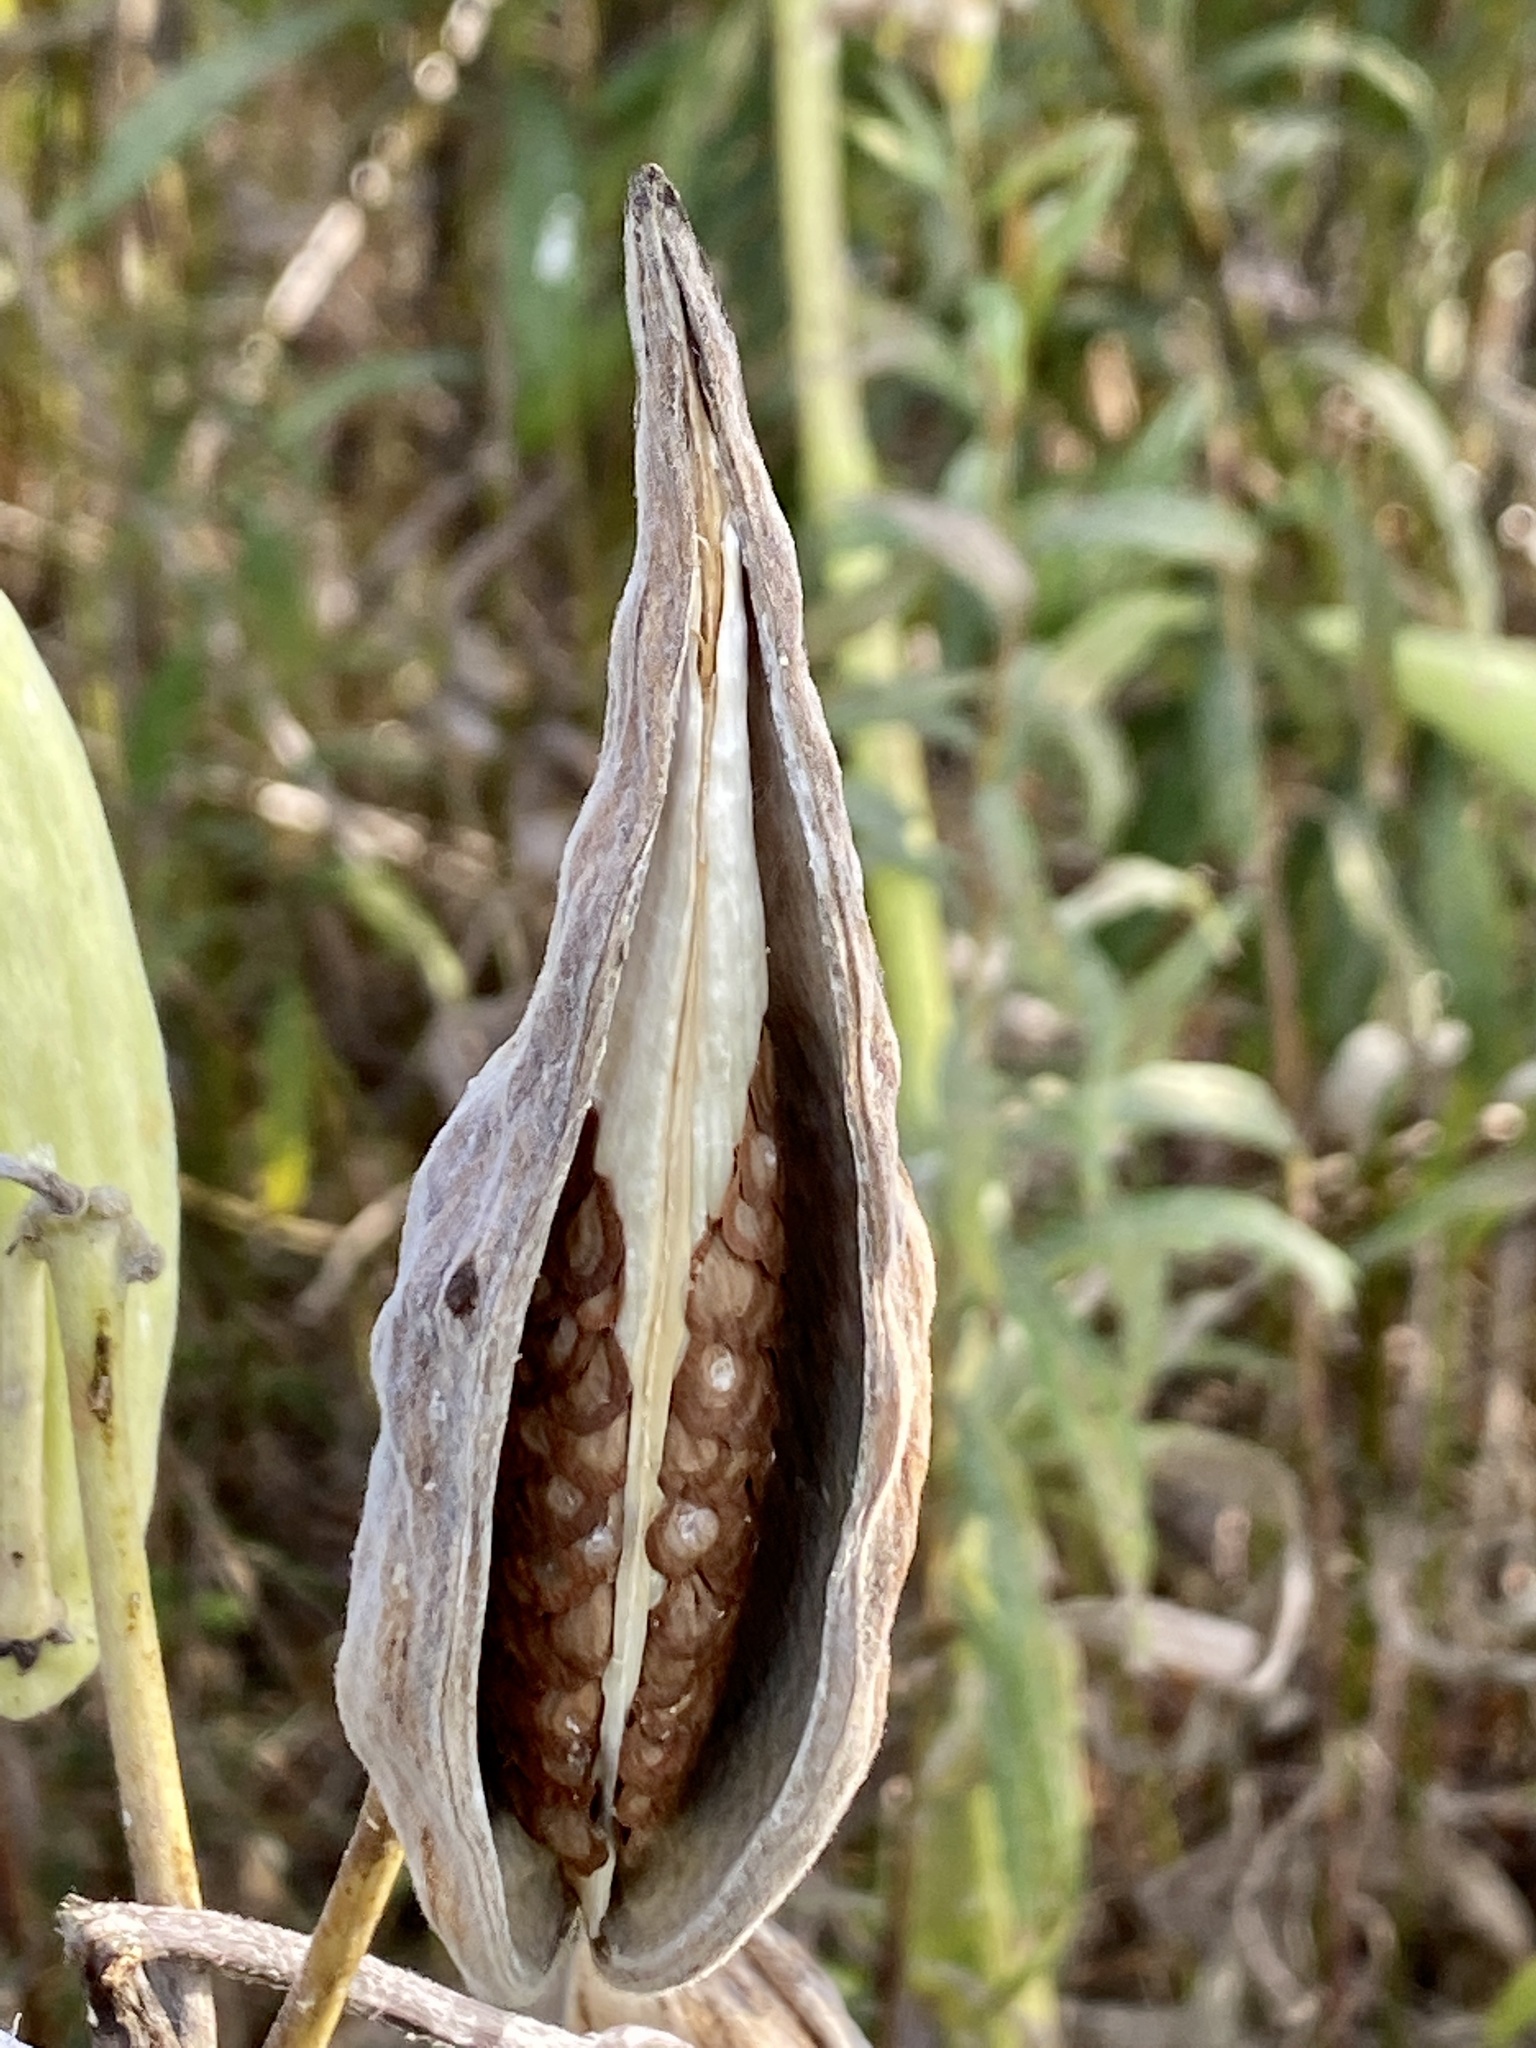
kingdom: Plantae
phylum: Tracheophyta
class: Magnoliopsida
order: Gentianales
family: Apocynaceae
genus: Asclepias
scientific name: Asclepias syriaca
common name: Common milkweed
